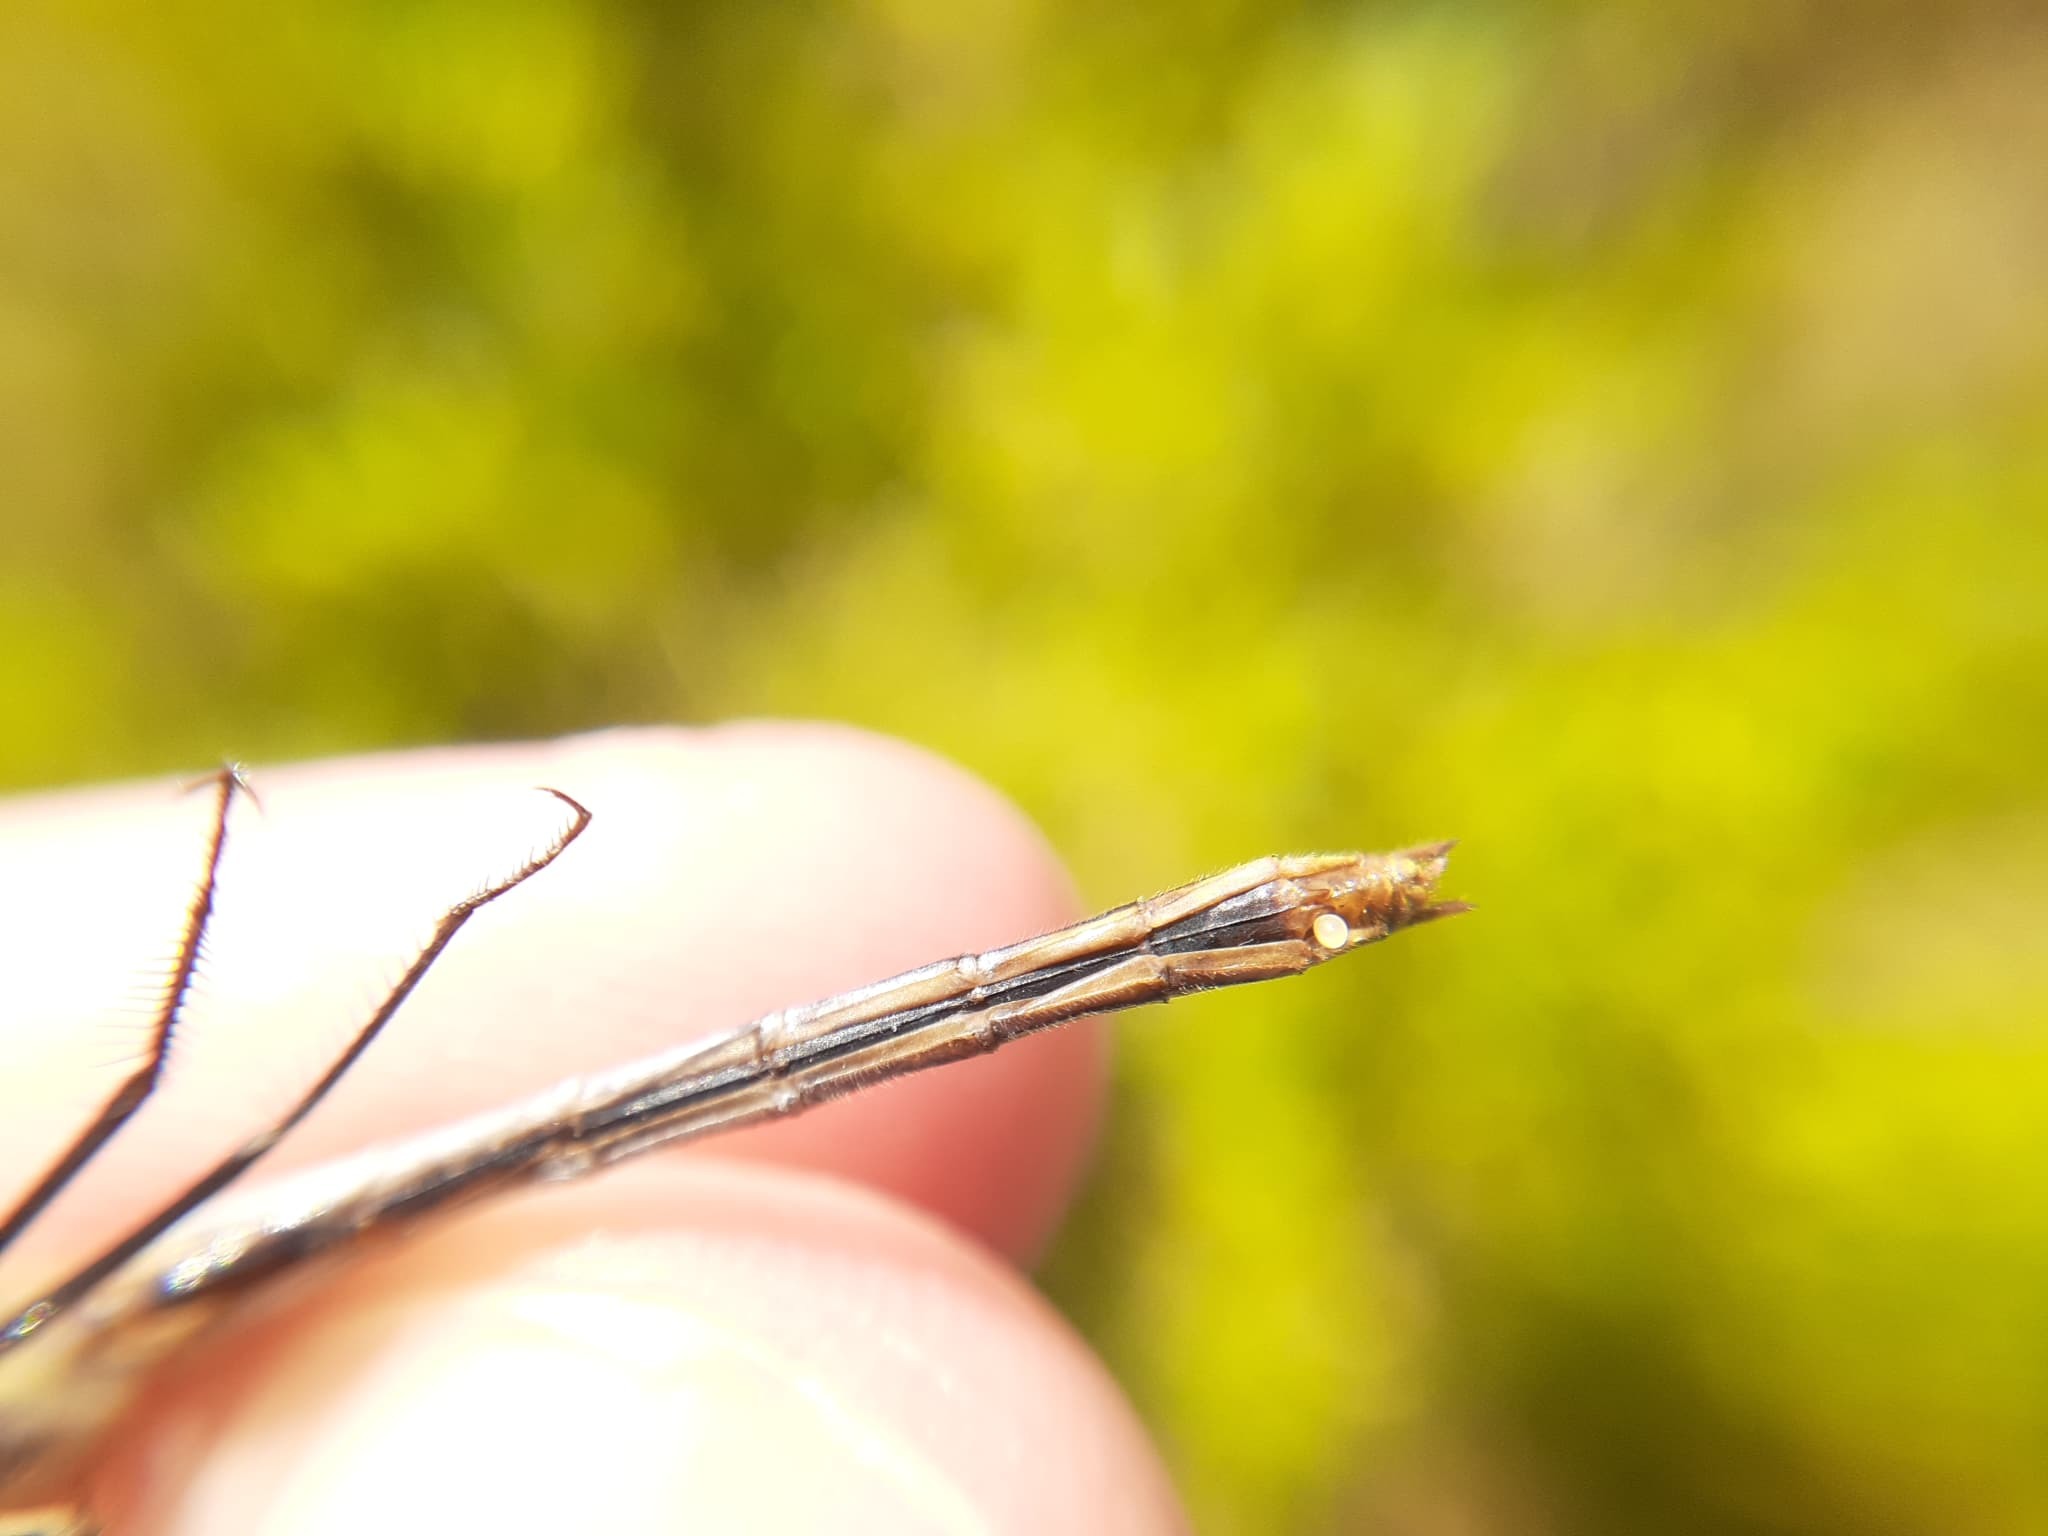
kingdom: Animalia
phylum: Arthropoda
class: Insecta
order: Odonata
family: Libellulidae
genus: Sympetrum
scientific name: Sympetrum obtrusum
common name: White-faced meadowhawk
